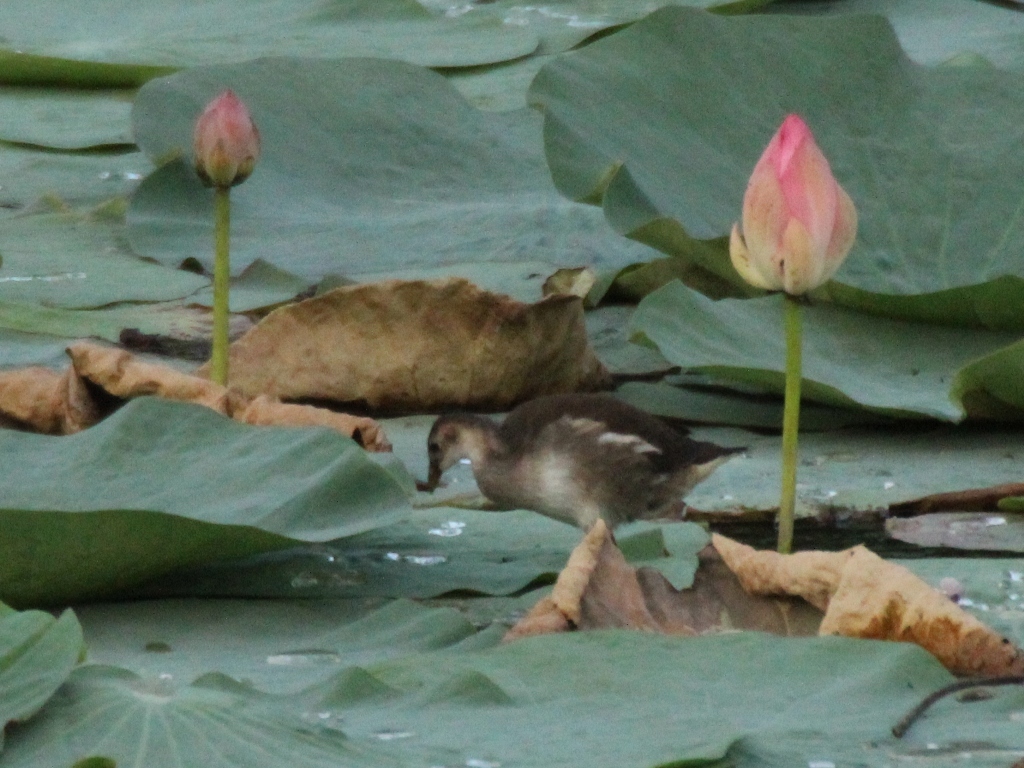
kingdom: Animalia
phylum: Chordata
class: Aves
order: Gruiformes
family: Rallidae
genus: Gallinula
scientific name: Gallinula chloropus
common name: Common moorhen
